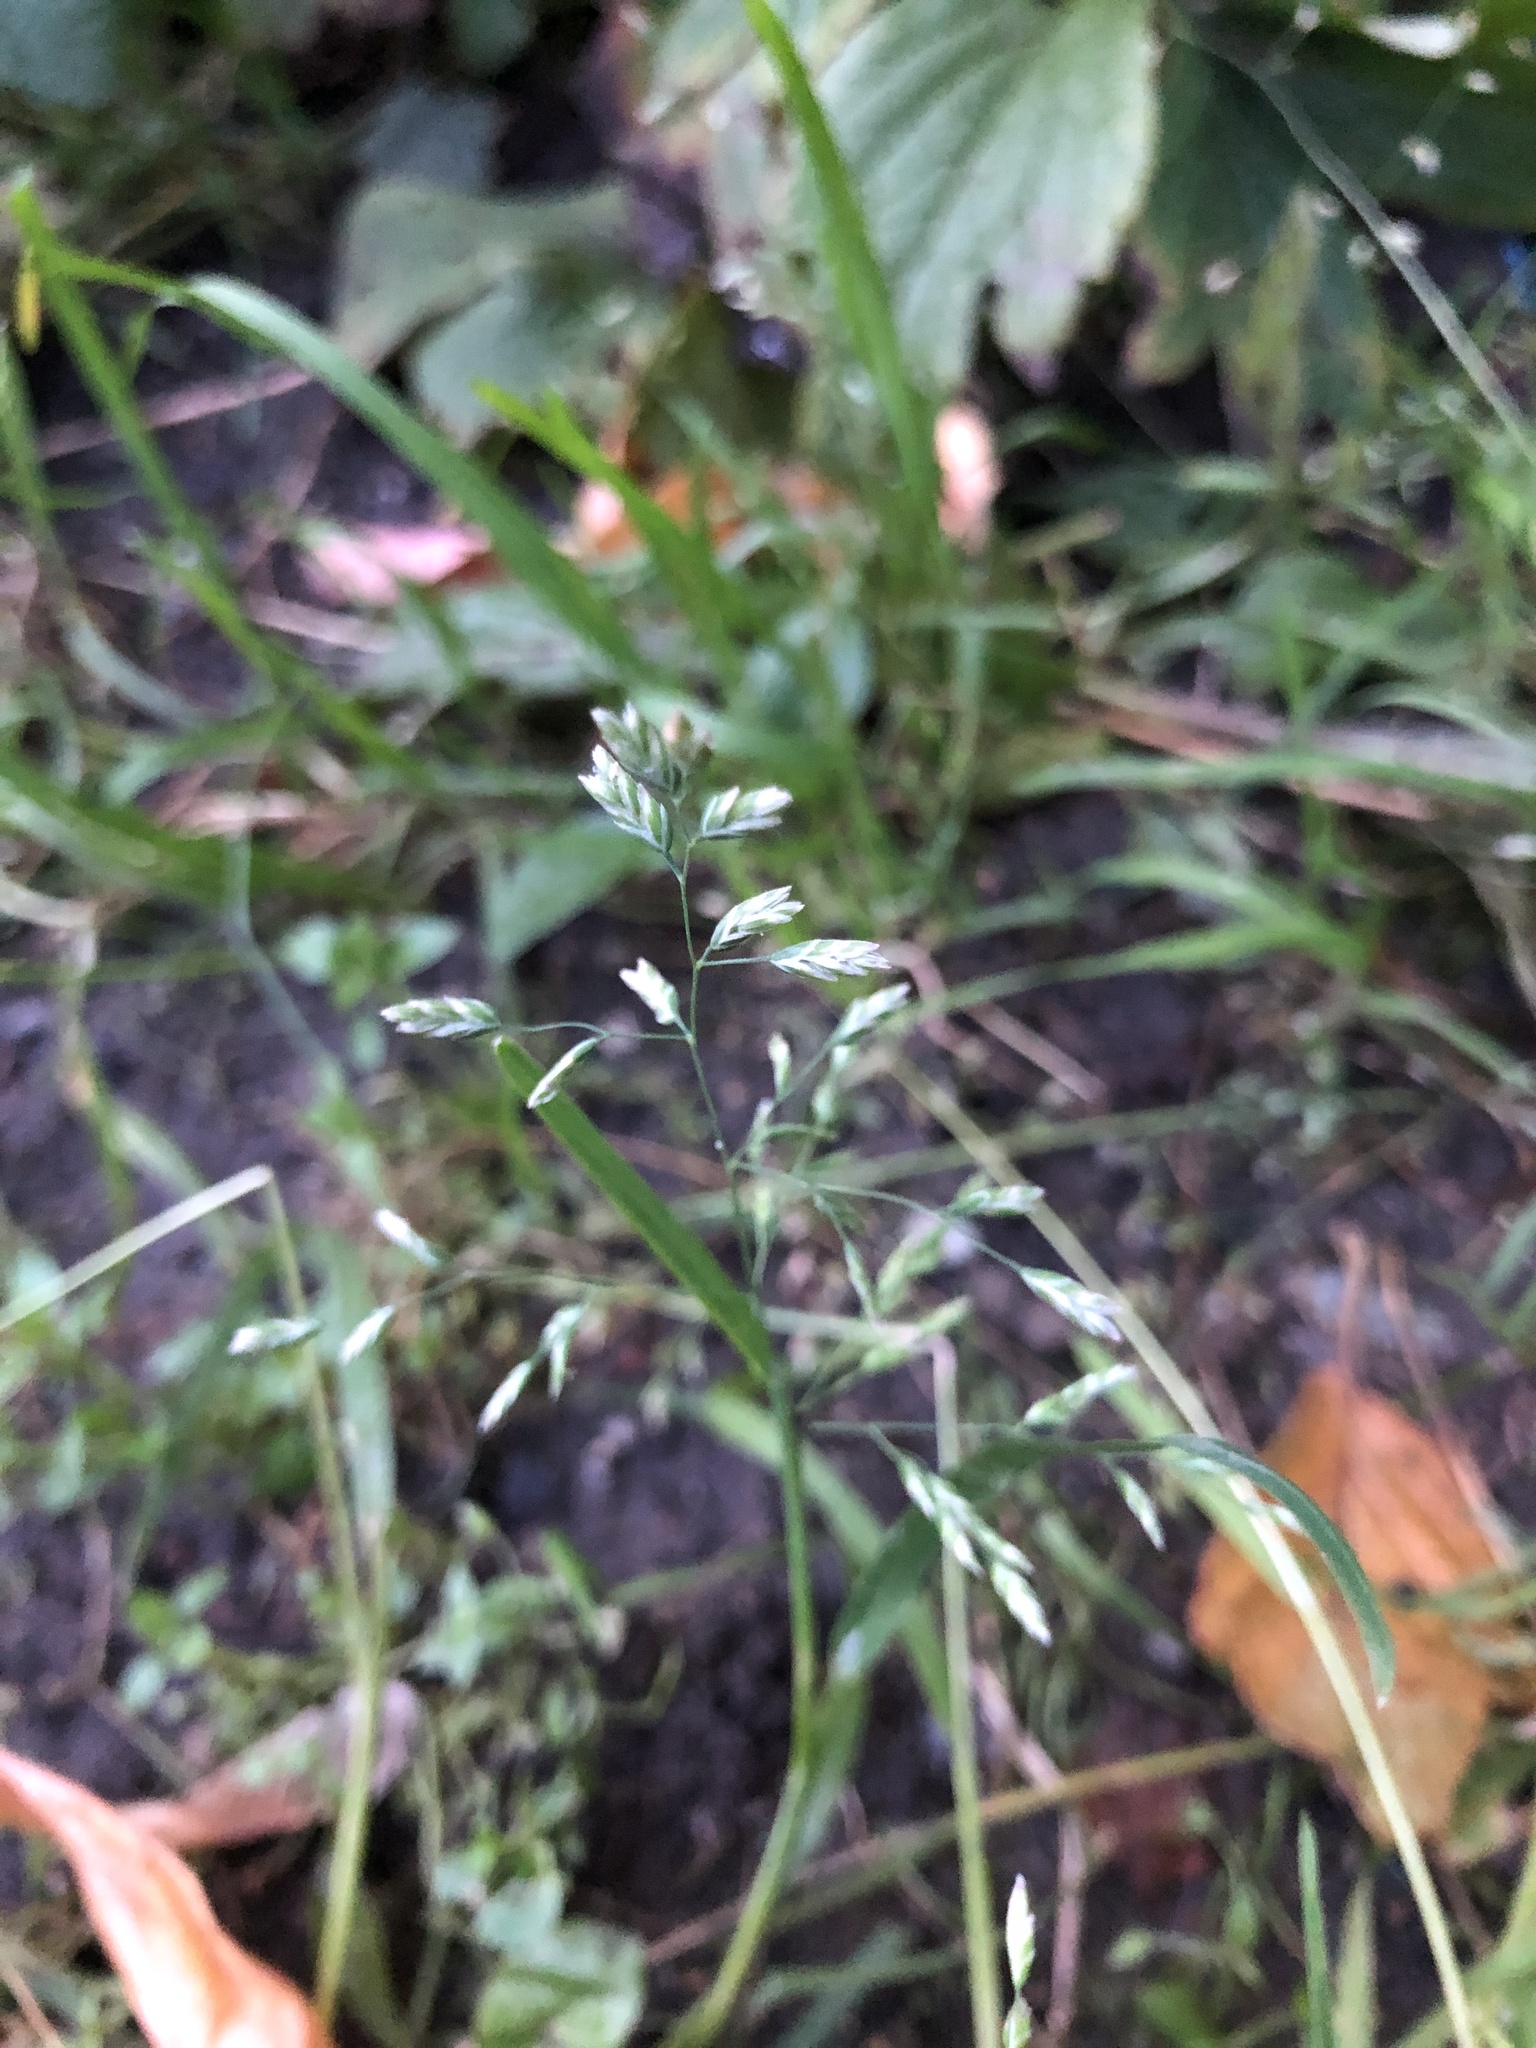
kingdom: Plantae
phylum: Tracheophyta
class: Liliopsida
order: Poales
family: Poaceae
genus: Poa
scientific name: Poa annua
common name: Annual bluegrass
